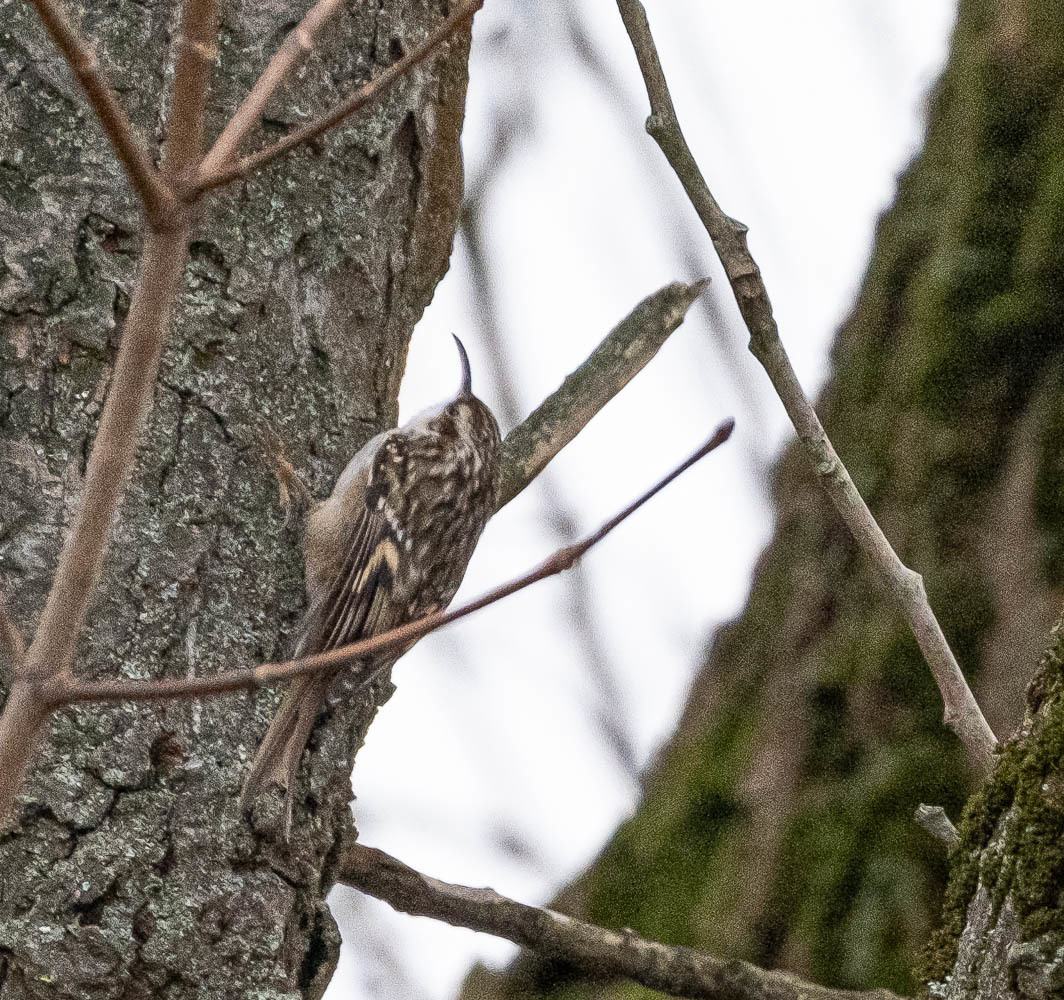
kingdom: Animalia
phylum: Chordata
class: Aves
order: Passeriformes
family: Certhiidae
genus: Certhia
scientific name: Certhia brachydactyla
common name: Short-toed treecreeper
